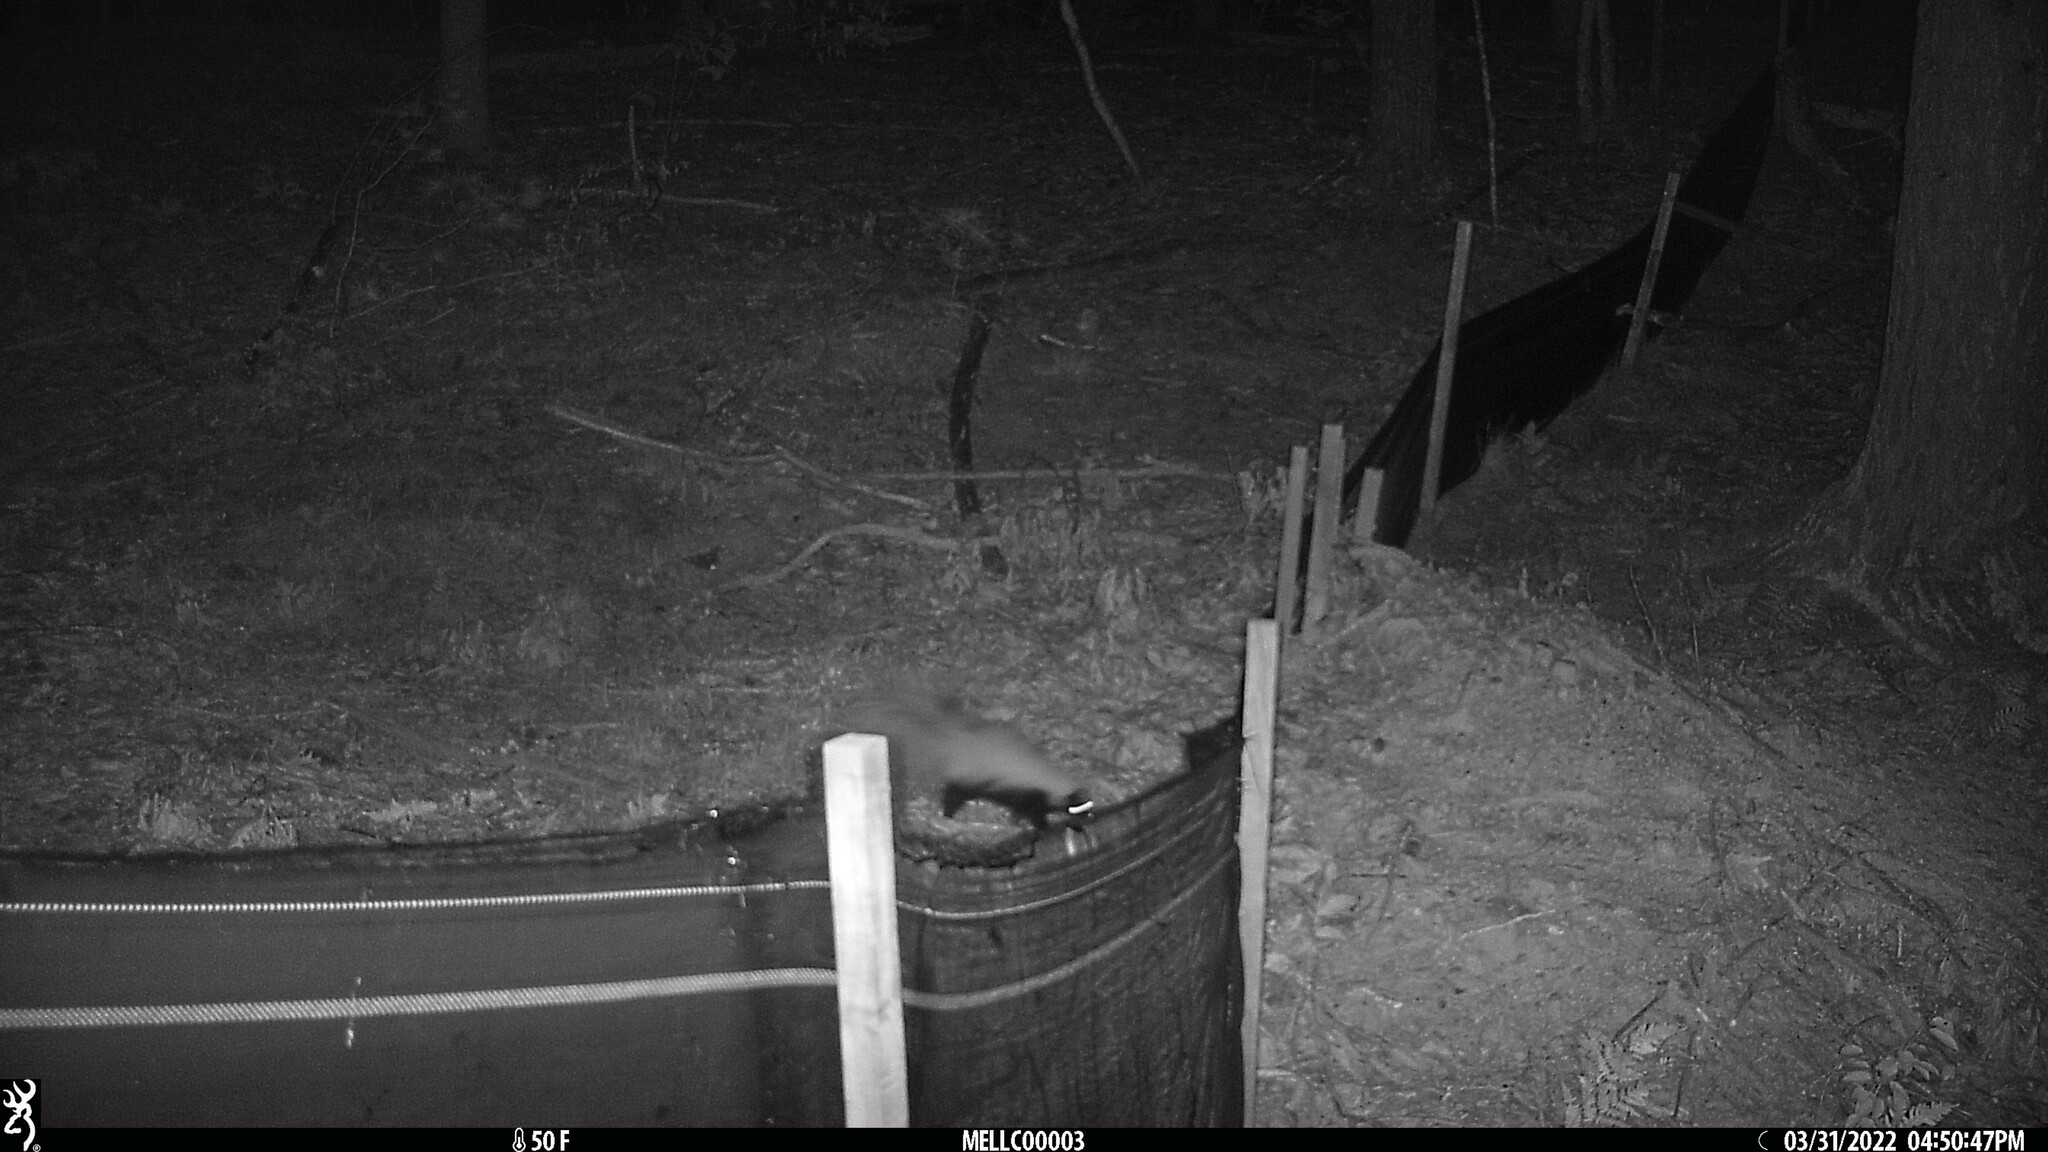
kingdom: Animalia
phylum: Chordata
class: Mammalia
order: Carnivora
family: Mephitidae
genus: Mephitis
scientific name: Mephitis mephitis
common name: Striped skunk
